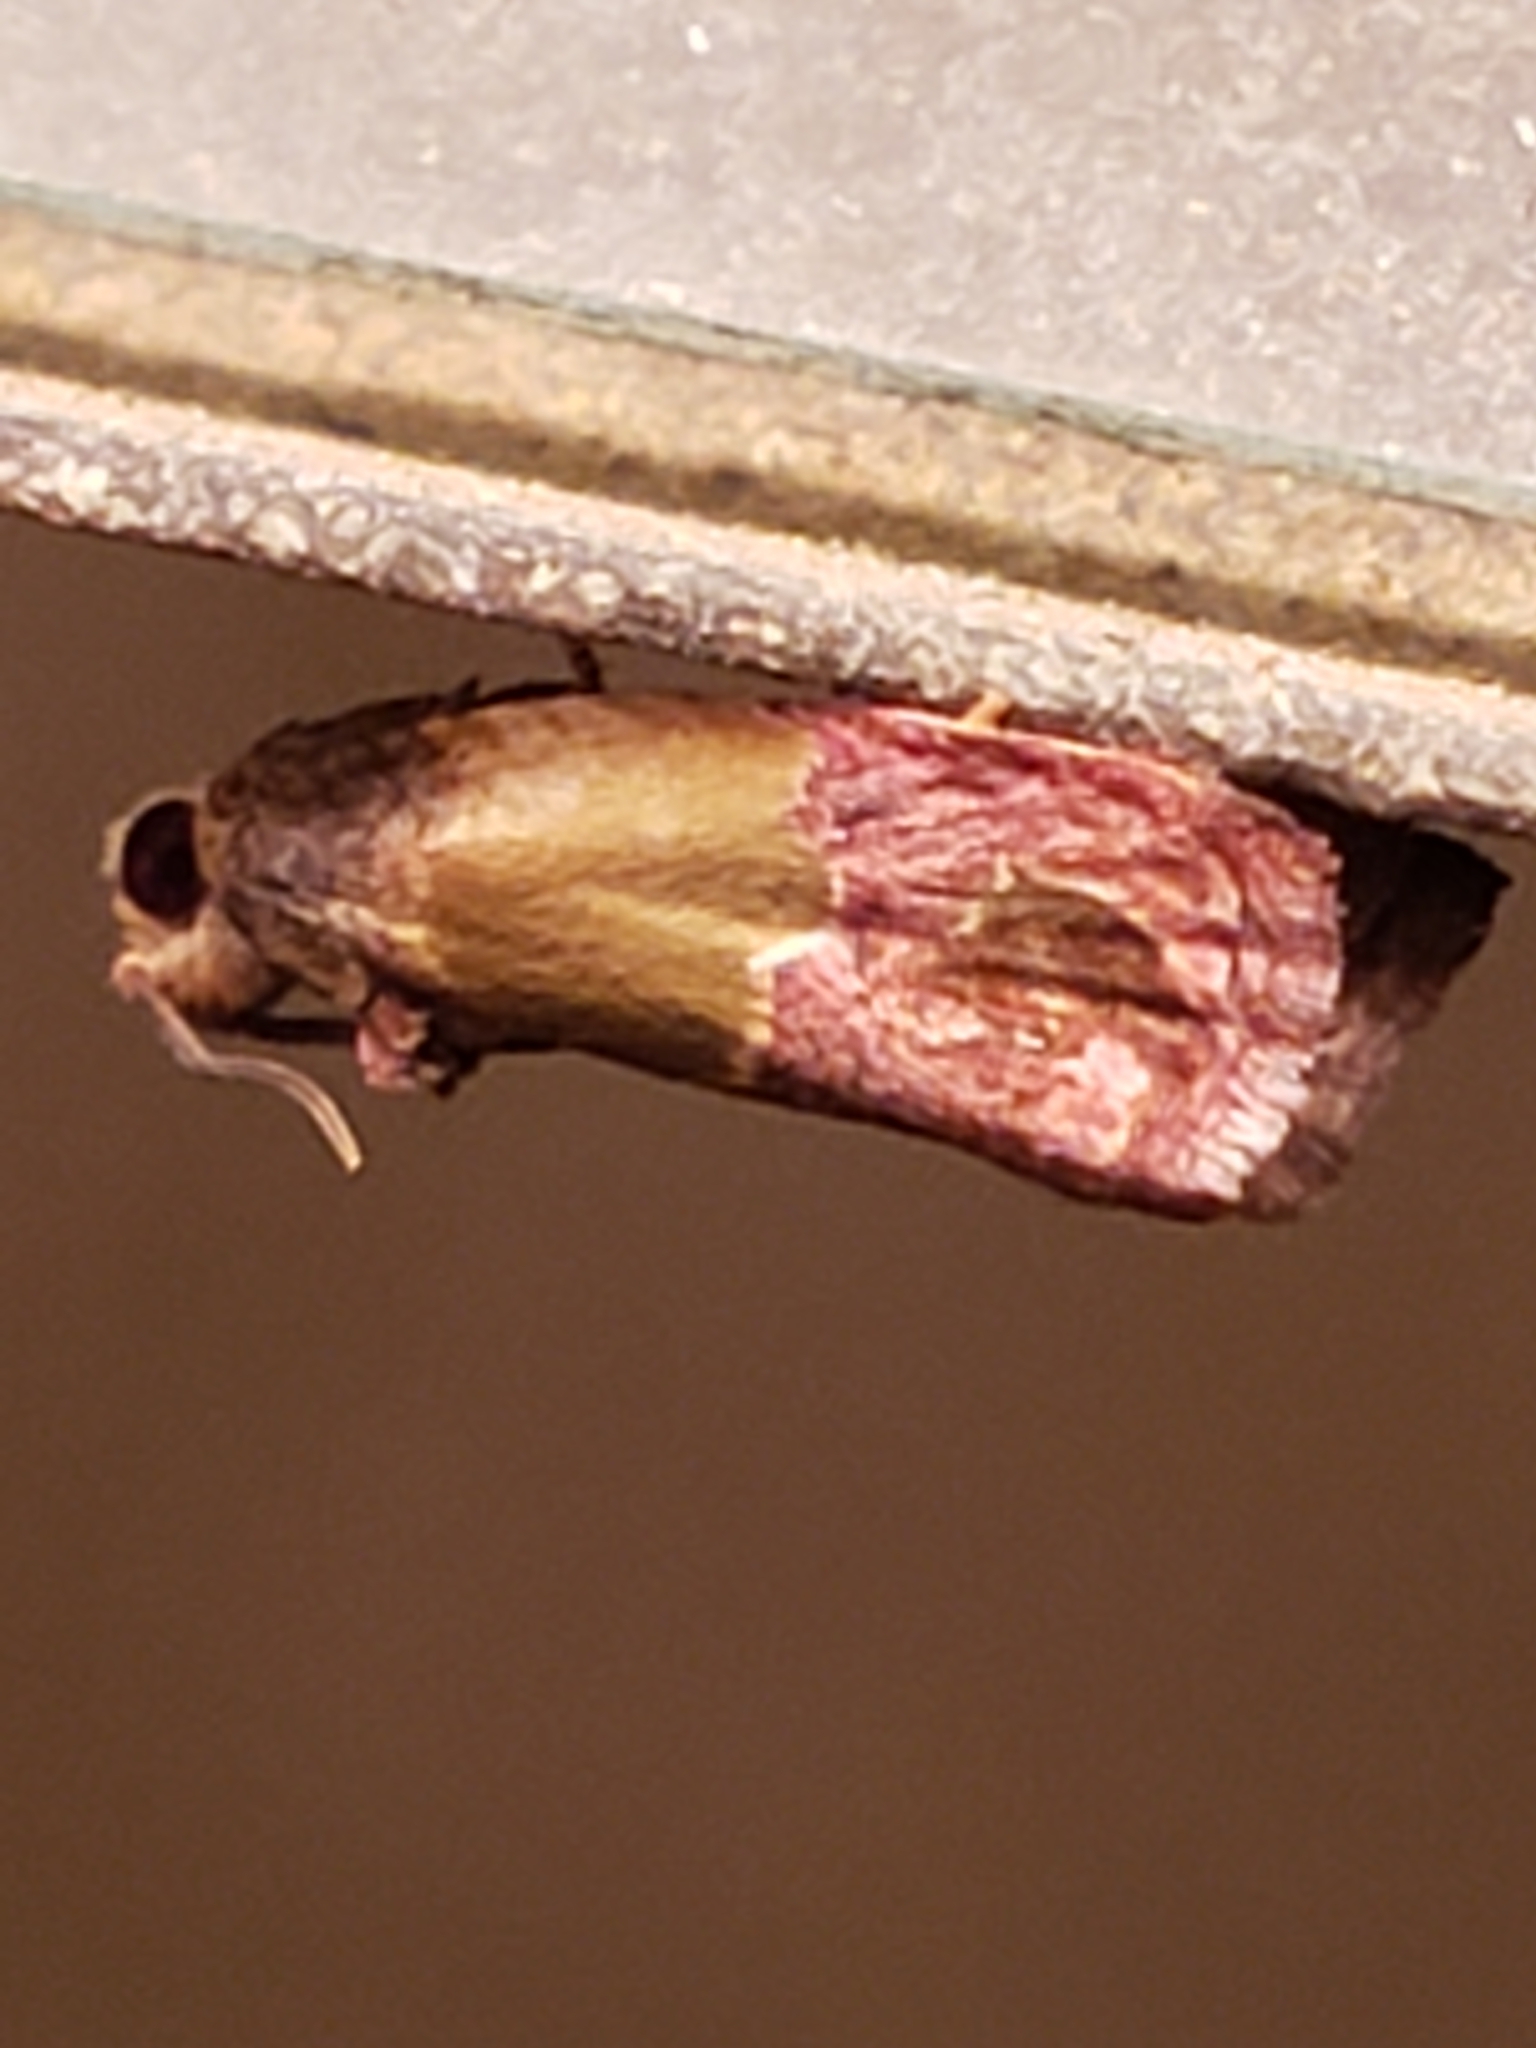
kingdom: Animalia
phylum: Arthropoda
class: Insecta
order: Lepidoptera
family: Tortricidae
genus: Eumarozia
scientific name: Eumarozia malachitana
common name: Sculptured moth
